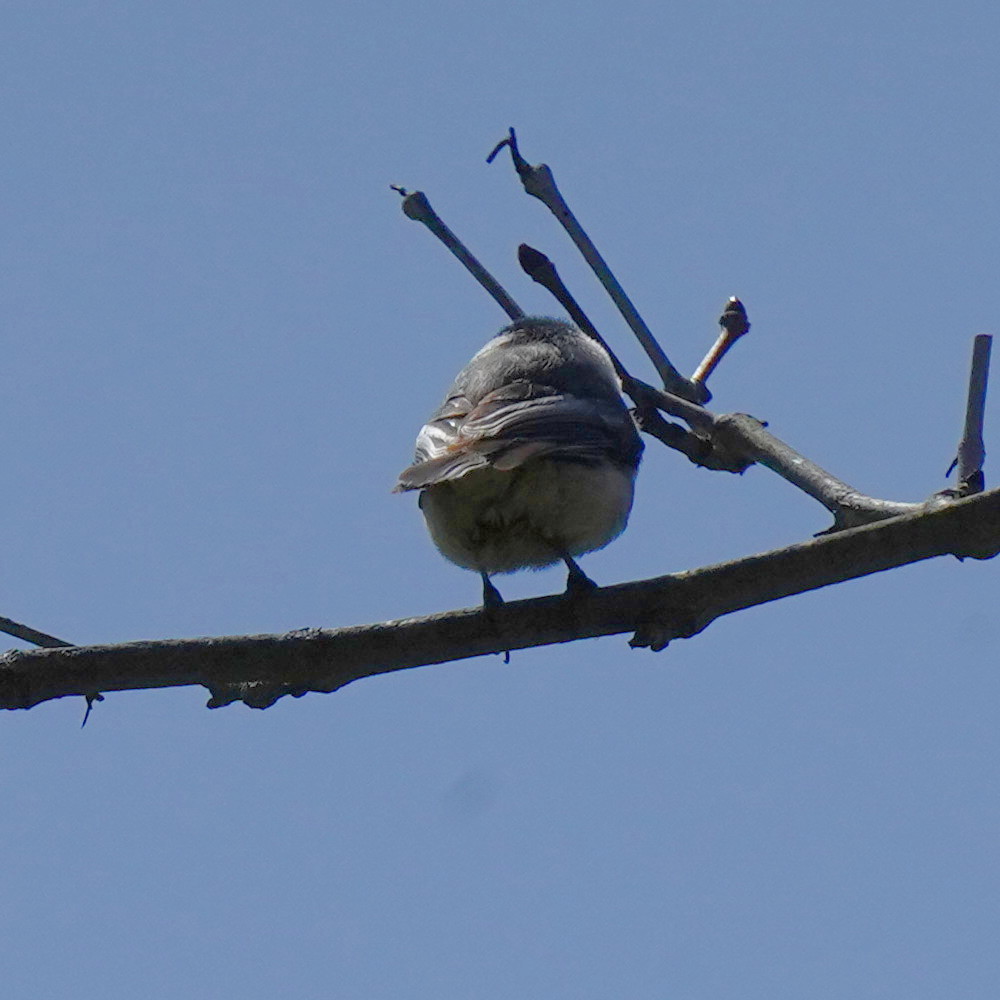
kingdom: Animalia
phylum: Chordata
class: Aves
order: Passeriformes
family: Paridae
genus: Poecile
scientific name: Poecile atricapillus
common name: Black-capped chickadee
